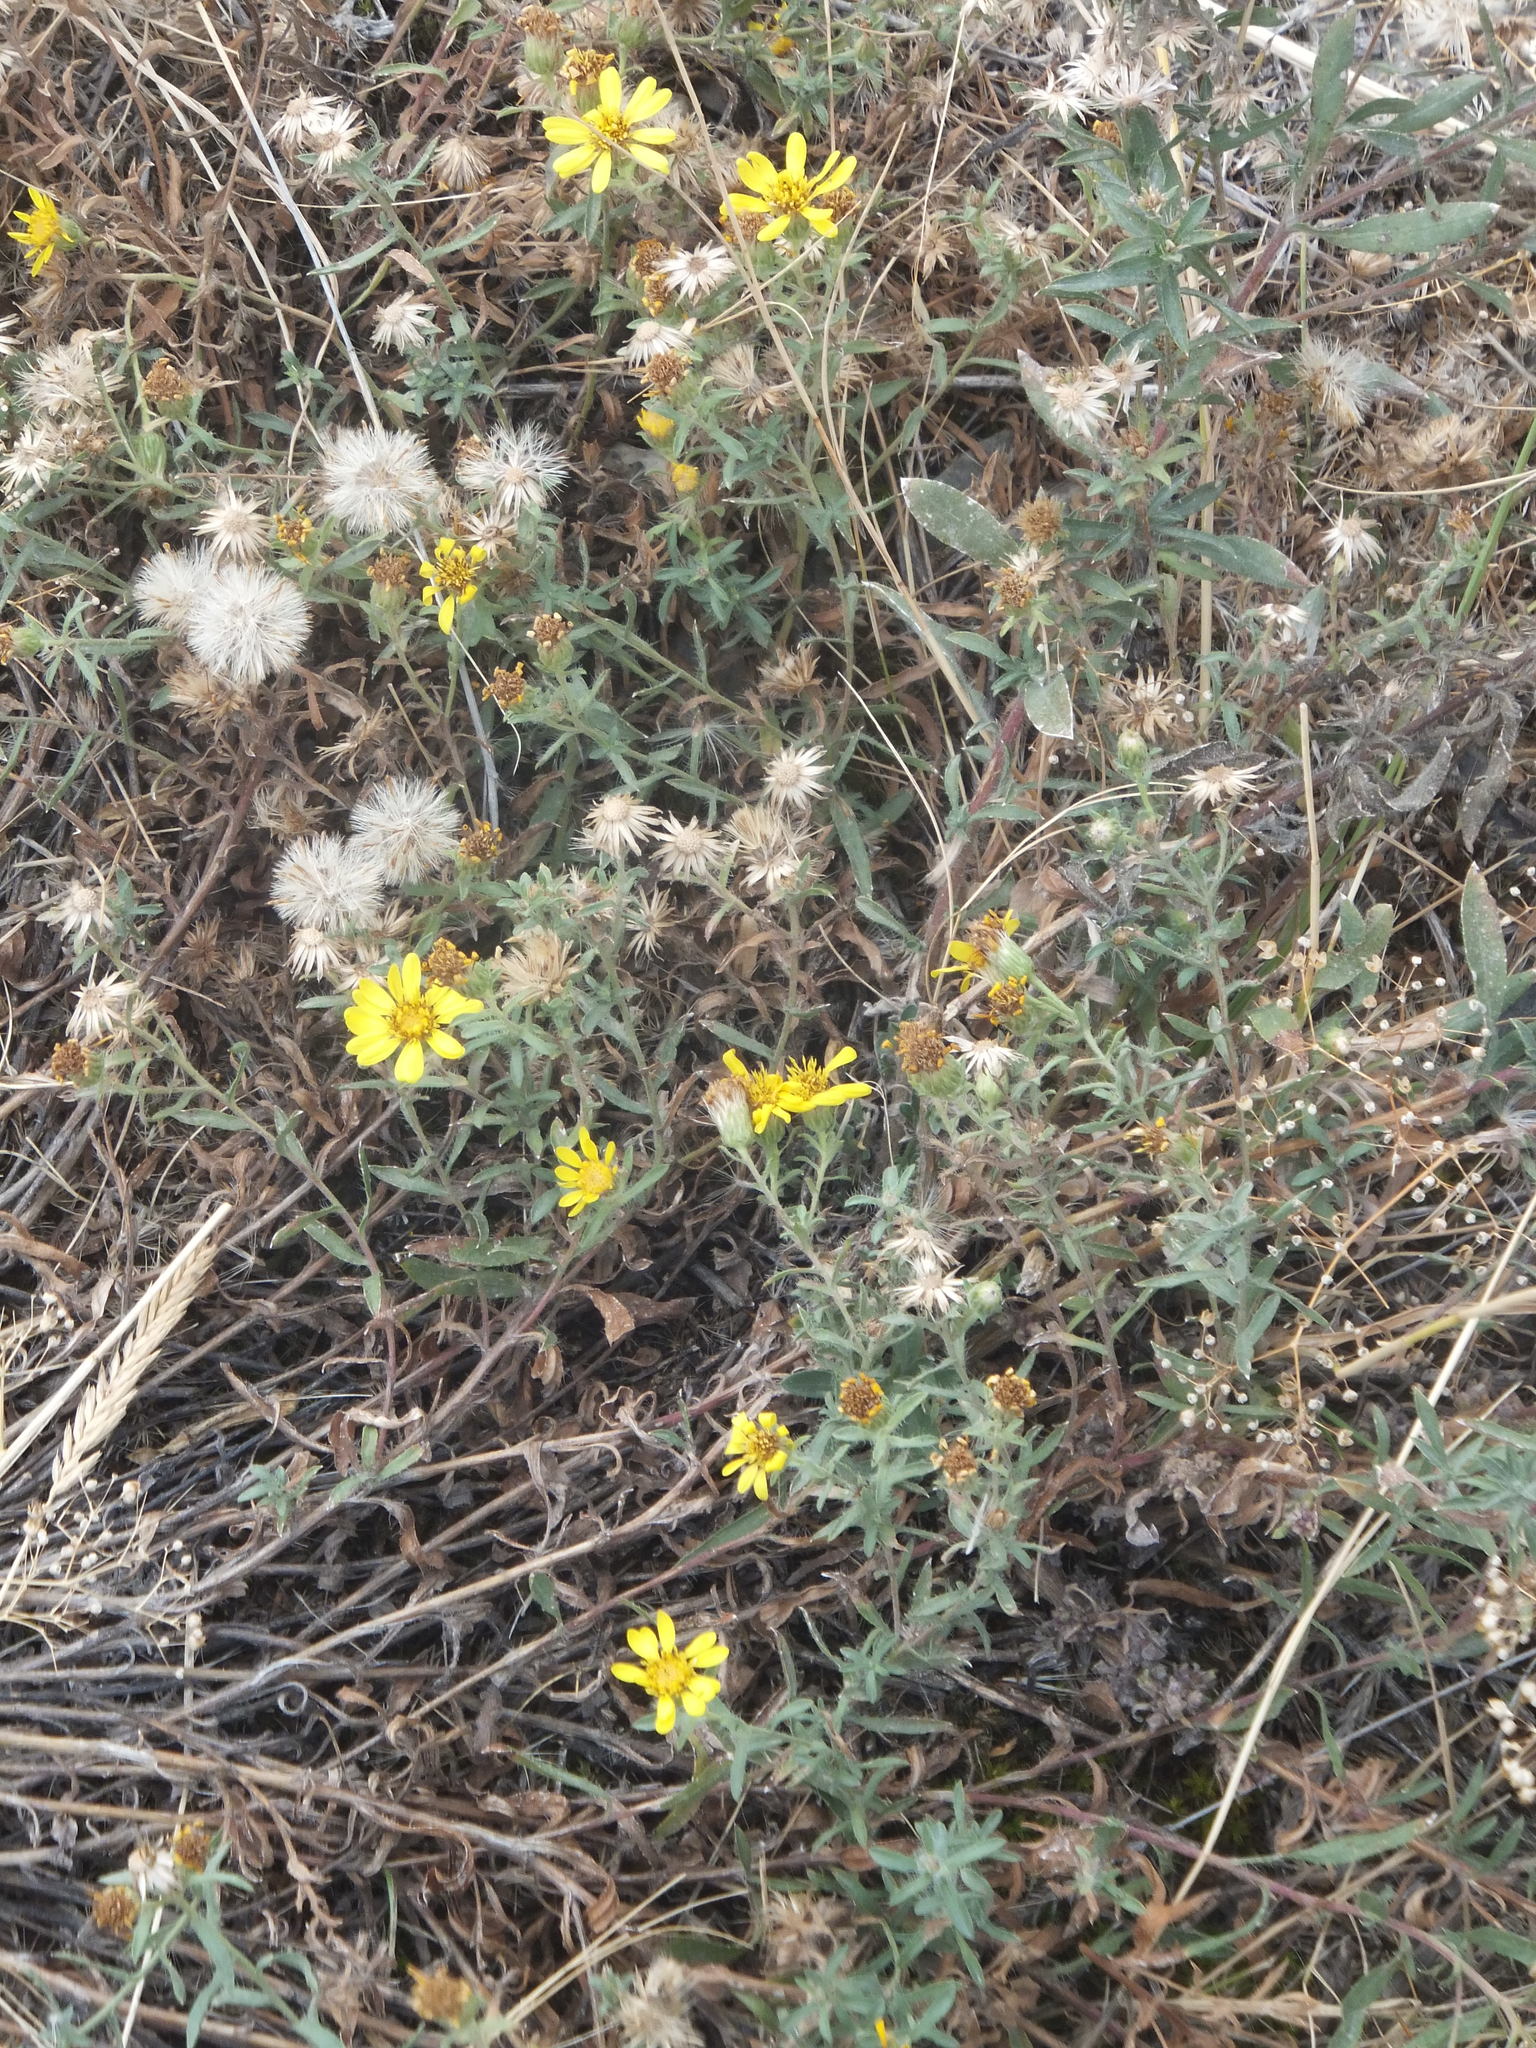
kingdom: Plantae
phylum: Tracheophyta
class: Magnoliopsida
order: Asterales
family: Asteraceae
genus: Heterotheca
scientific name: Heterotheca villosa
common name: Hairy false goldenaster
